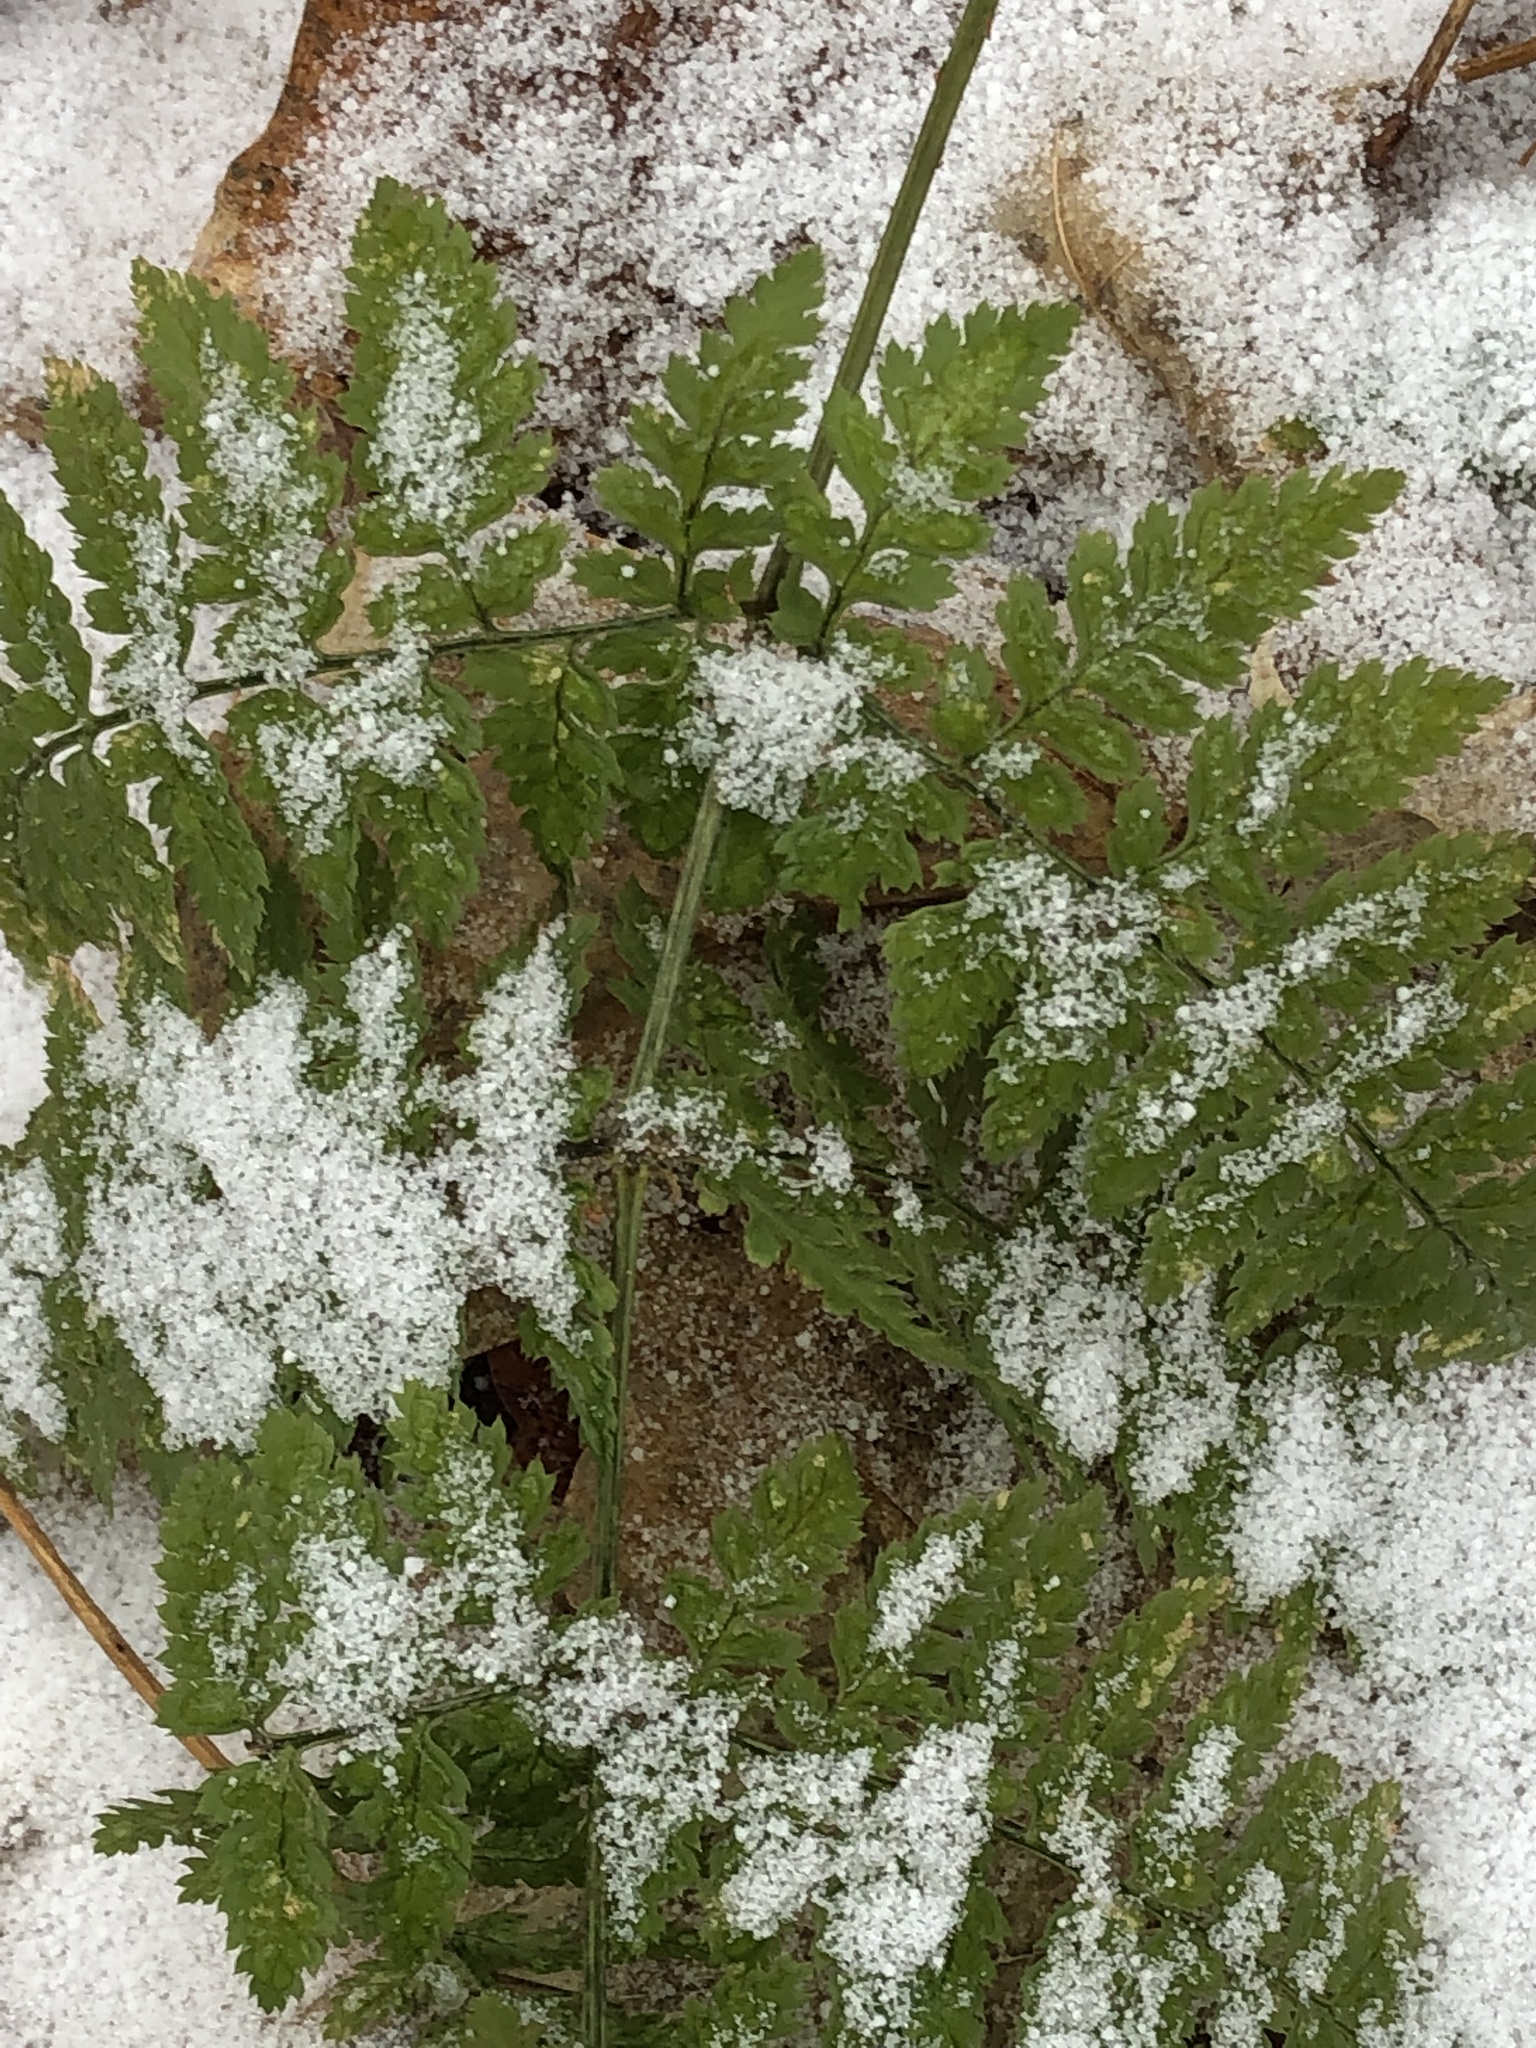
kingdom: Plantae
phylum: Tracheophyta
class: Polypodiopsida
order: Polypodiales
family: Dryopteridaceae
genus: Dryopteris
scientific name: Dryopteris intermedia
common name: Evergreen wood fern
